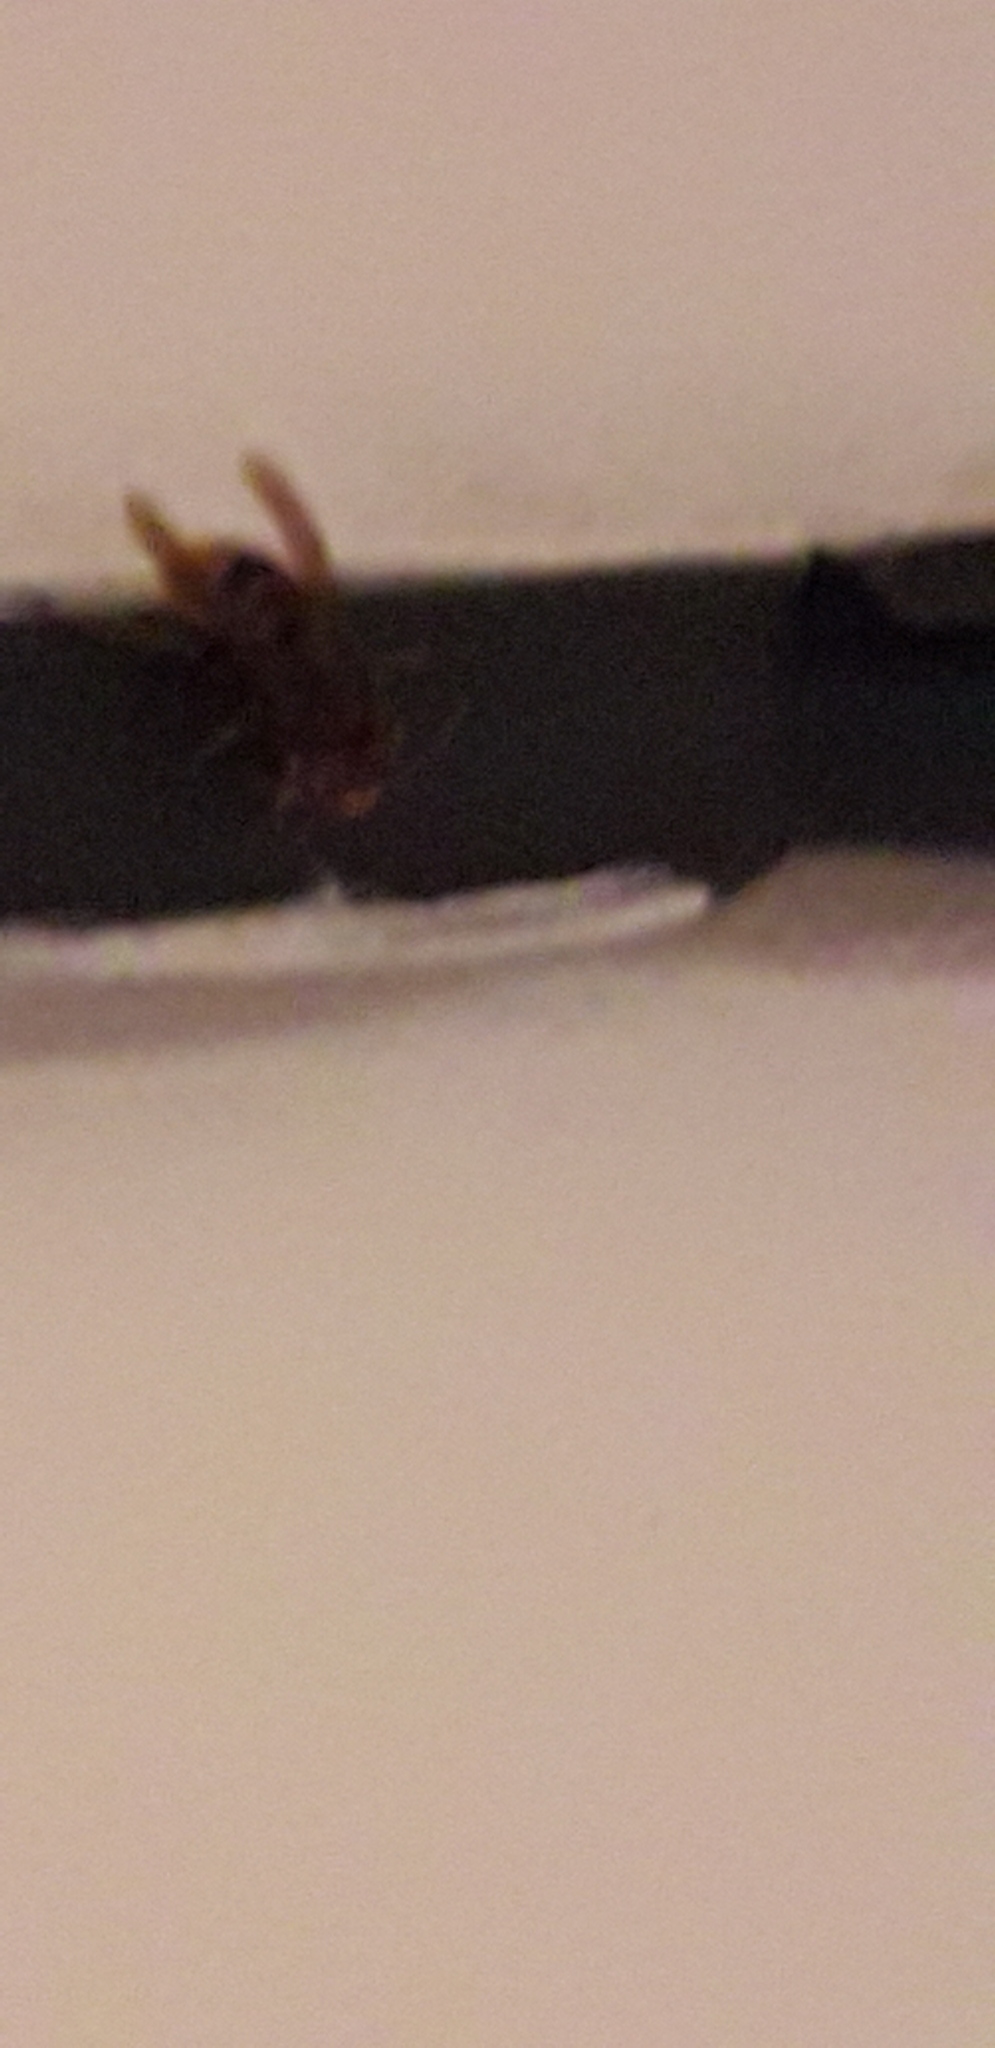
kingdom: Animalia
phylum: Arthropoda
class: Insecta
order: Hymenoptera
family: Vespidae
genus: Vespa
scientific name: Vespa crabro
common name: Hornet
